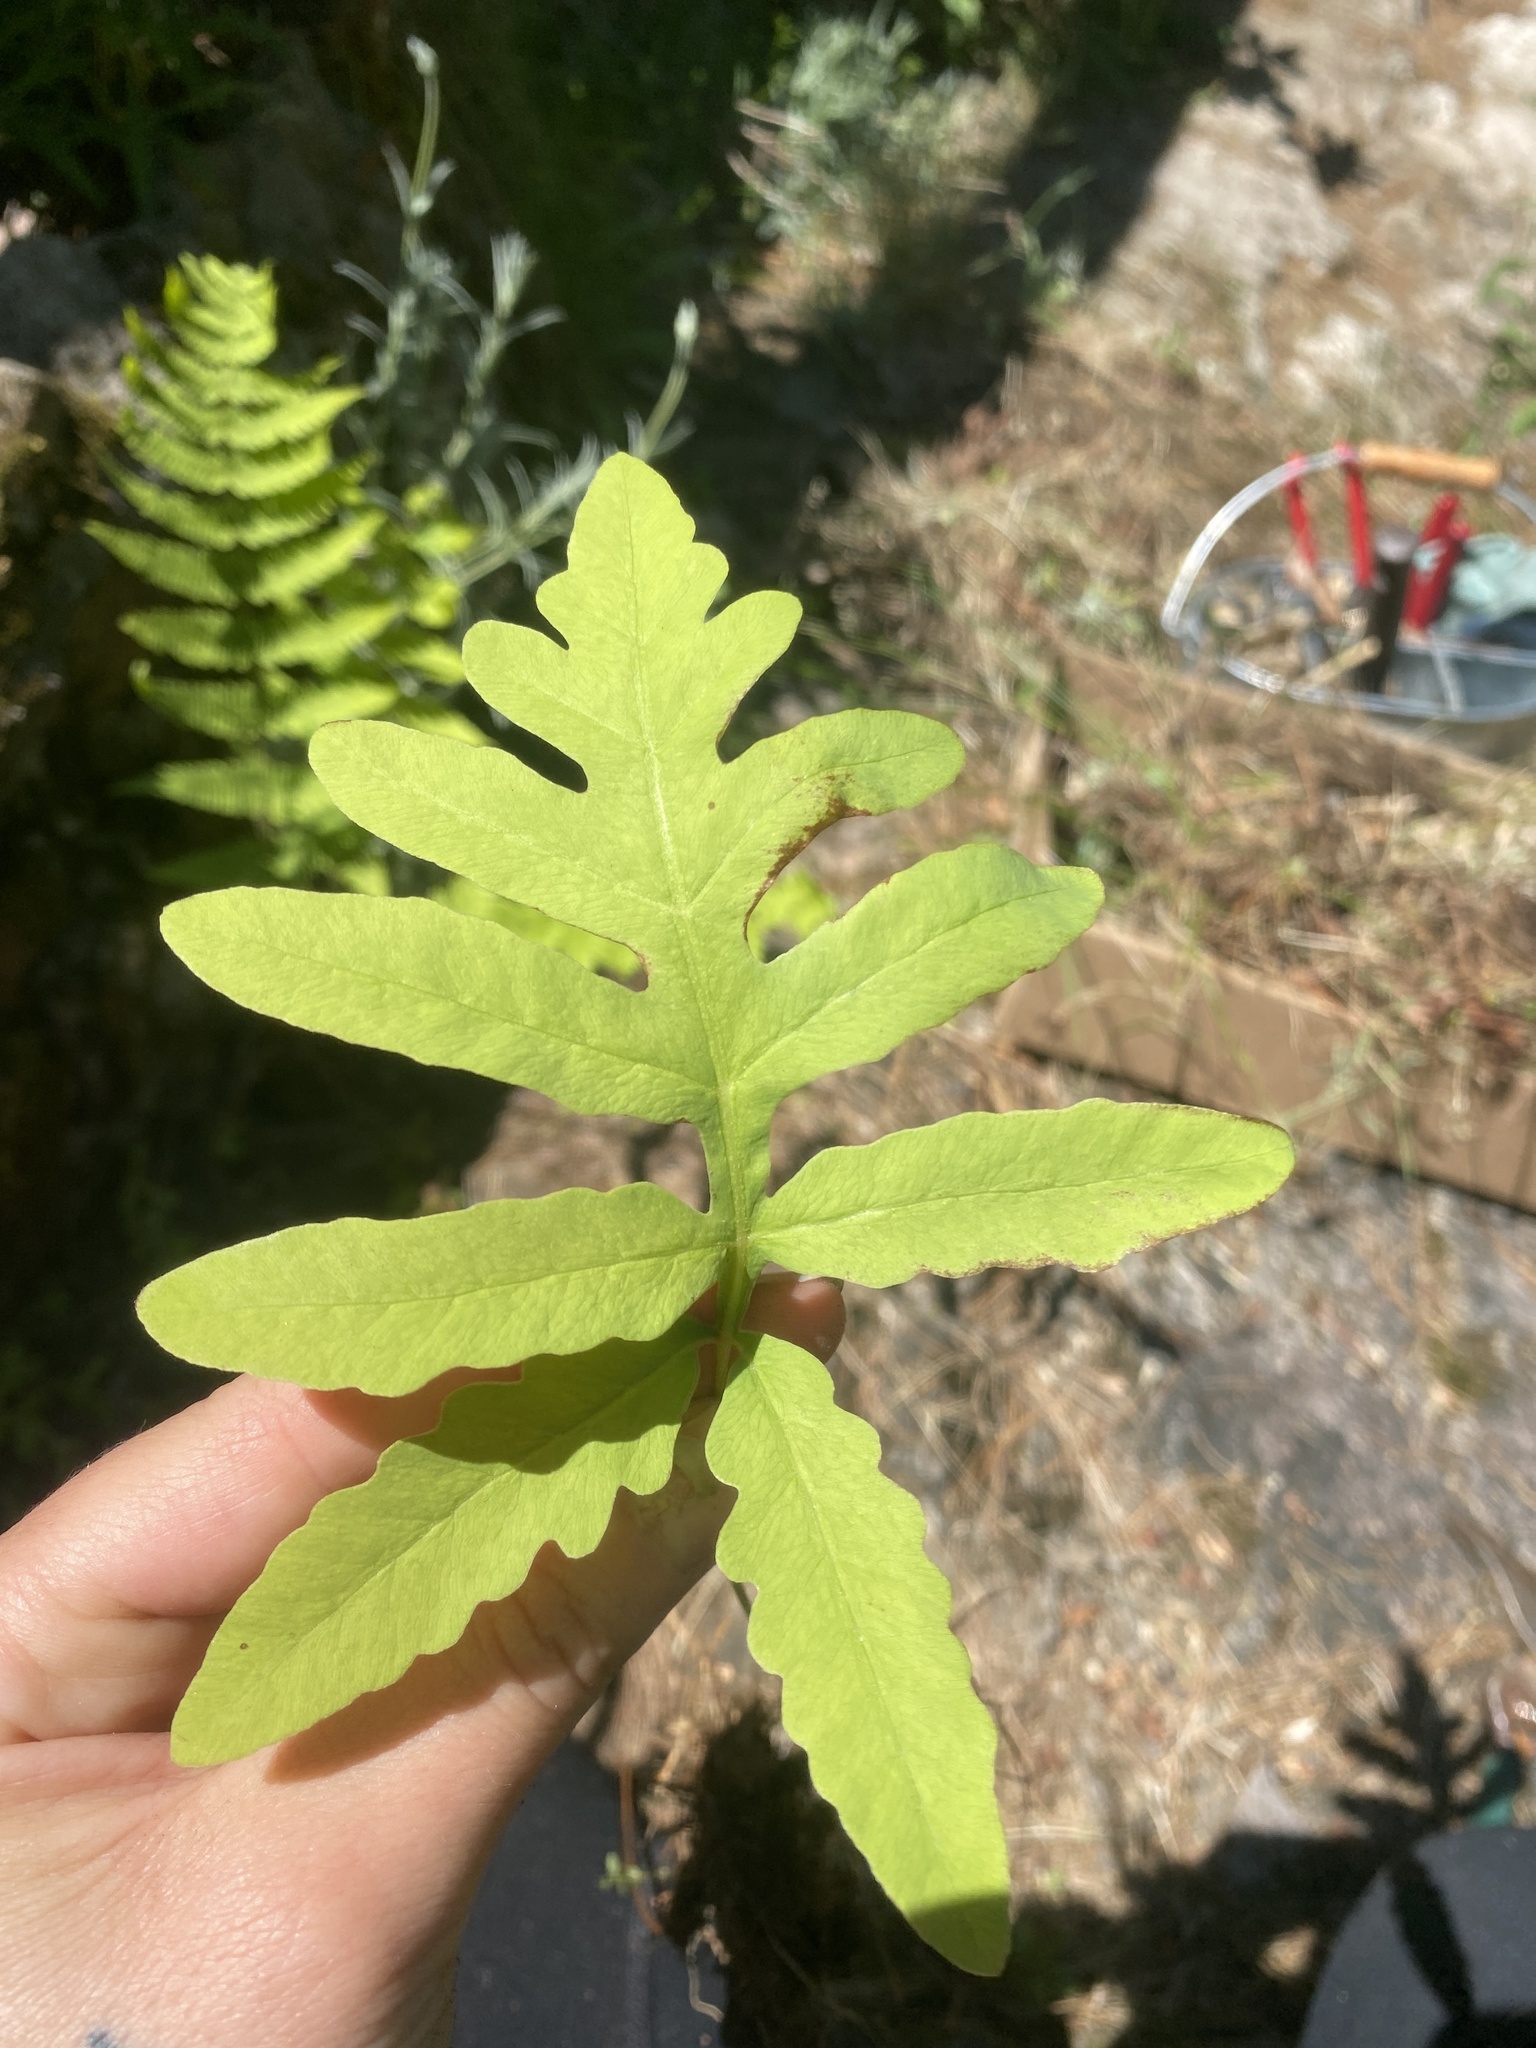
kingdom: Plantae
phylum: Tracheophyta
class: Polypodiopsida
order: Polypodiales
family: Onocleaceae
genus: Onoclea
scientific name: Onoclea sensibilis
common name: Sensitive fern
